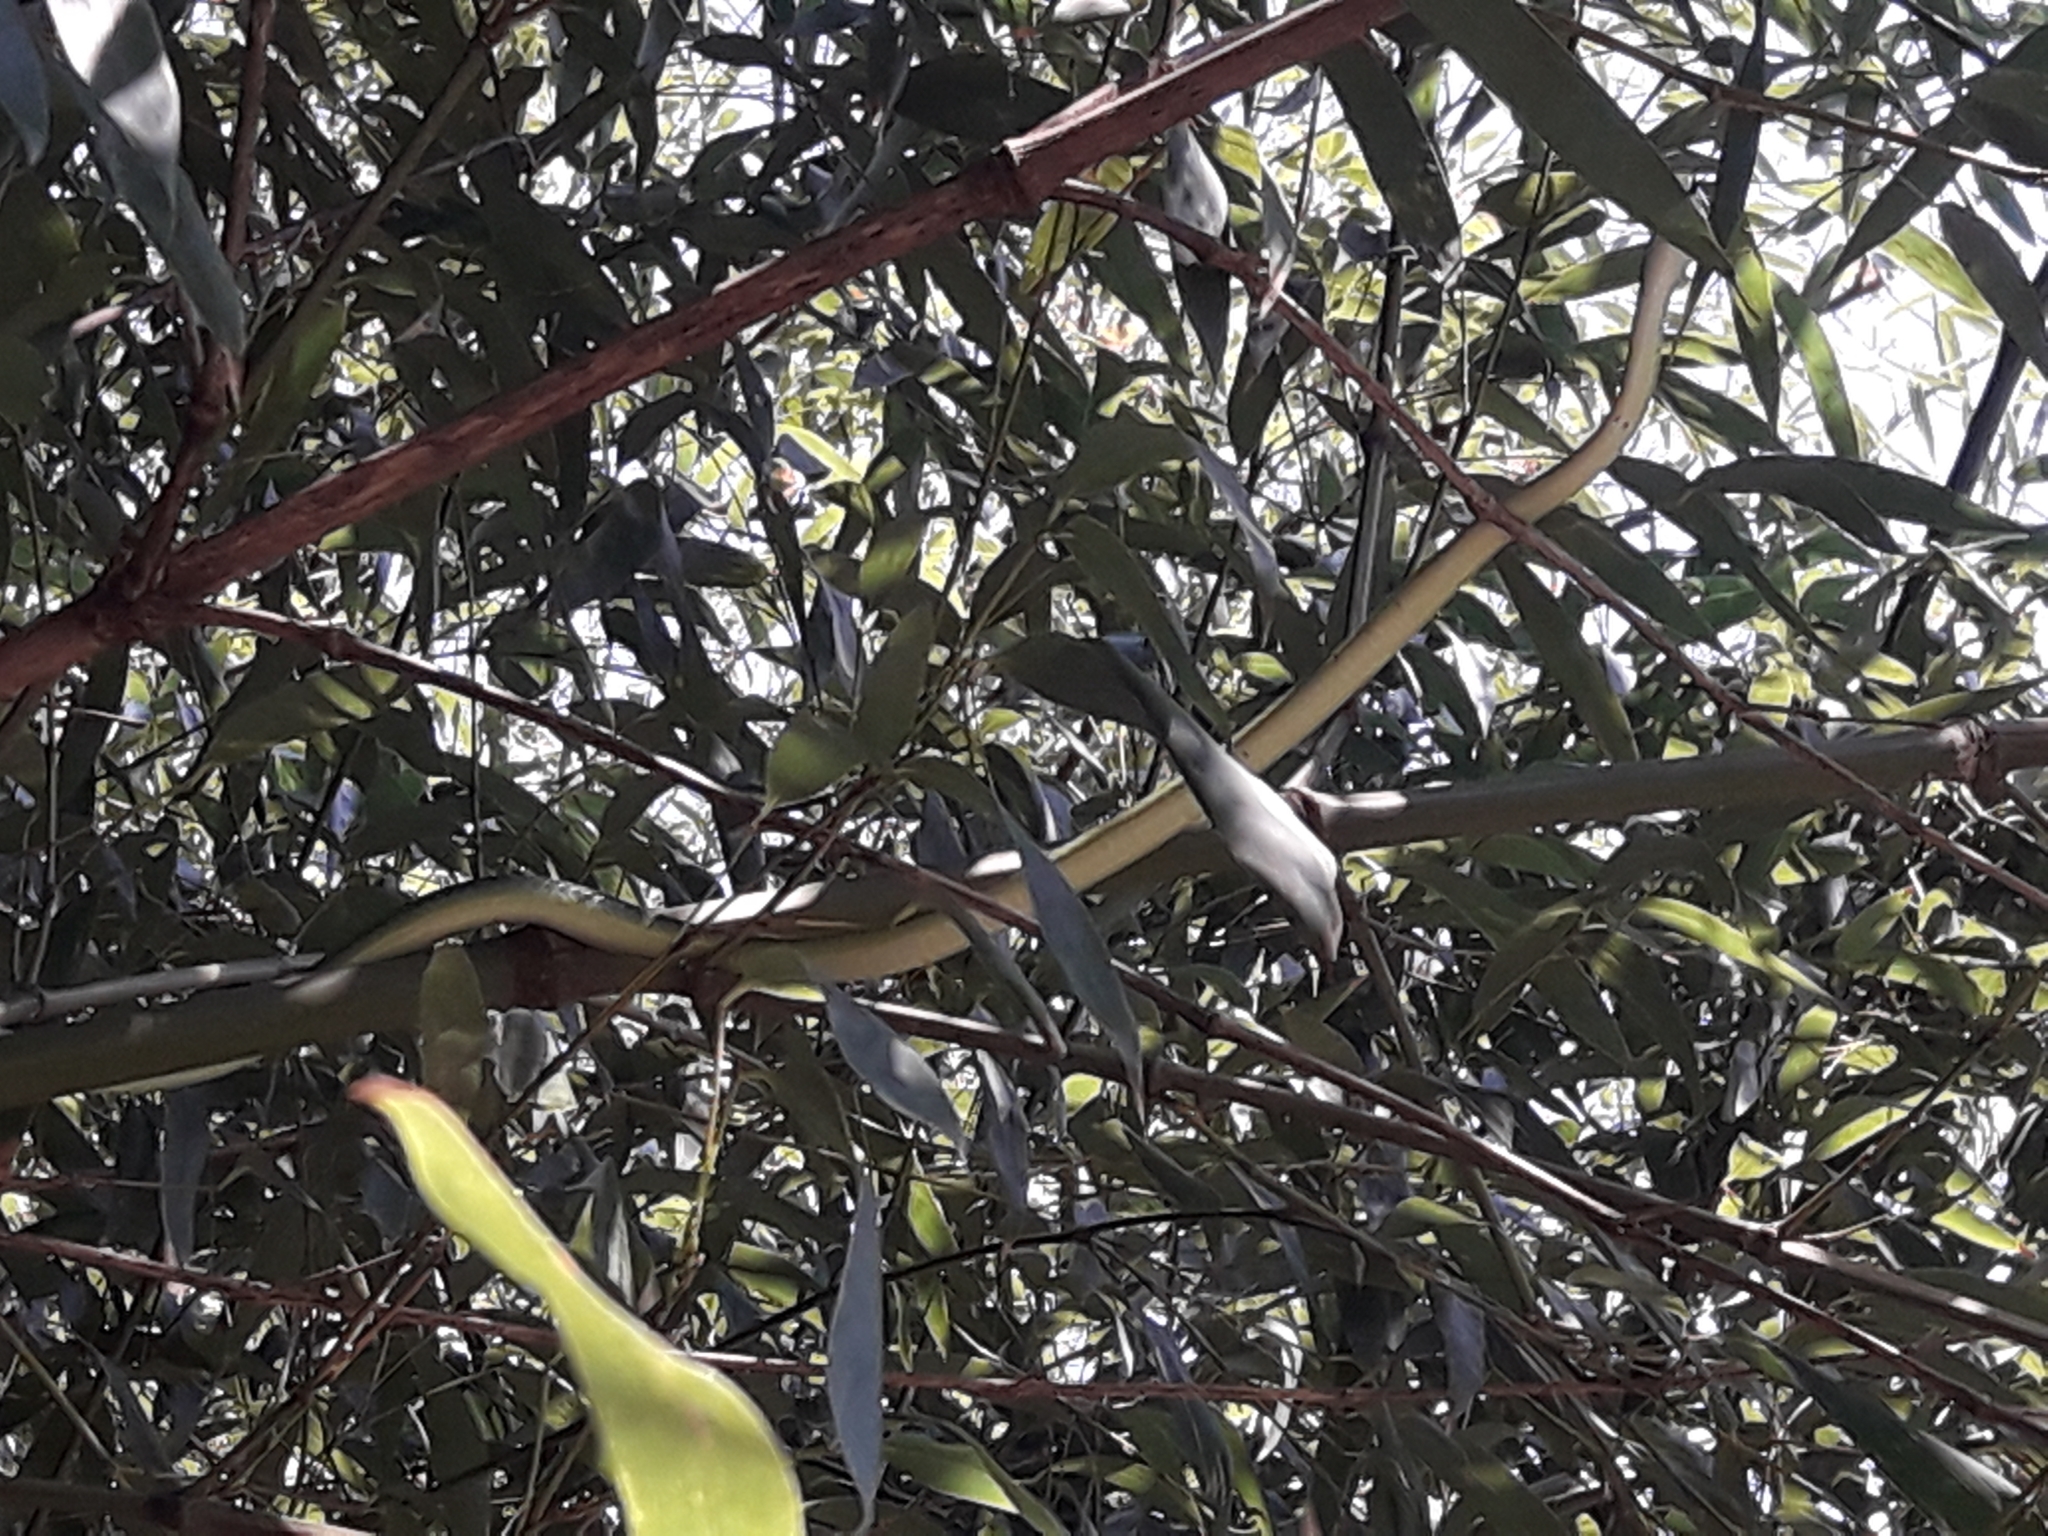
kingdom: Animalia
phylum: Chordata
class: Squamata
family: Colubridae
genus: Philothamnus
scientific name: Philothamnus semivariegatus
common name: Spotted bush snake
